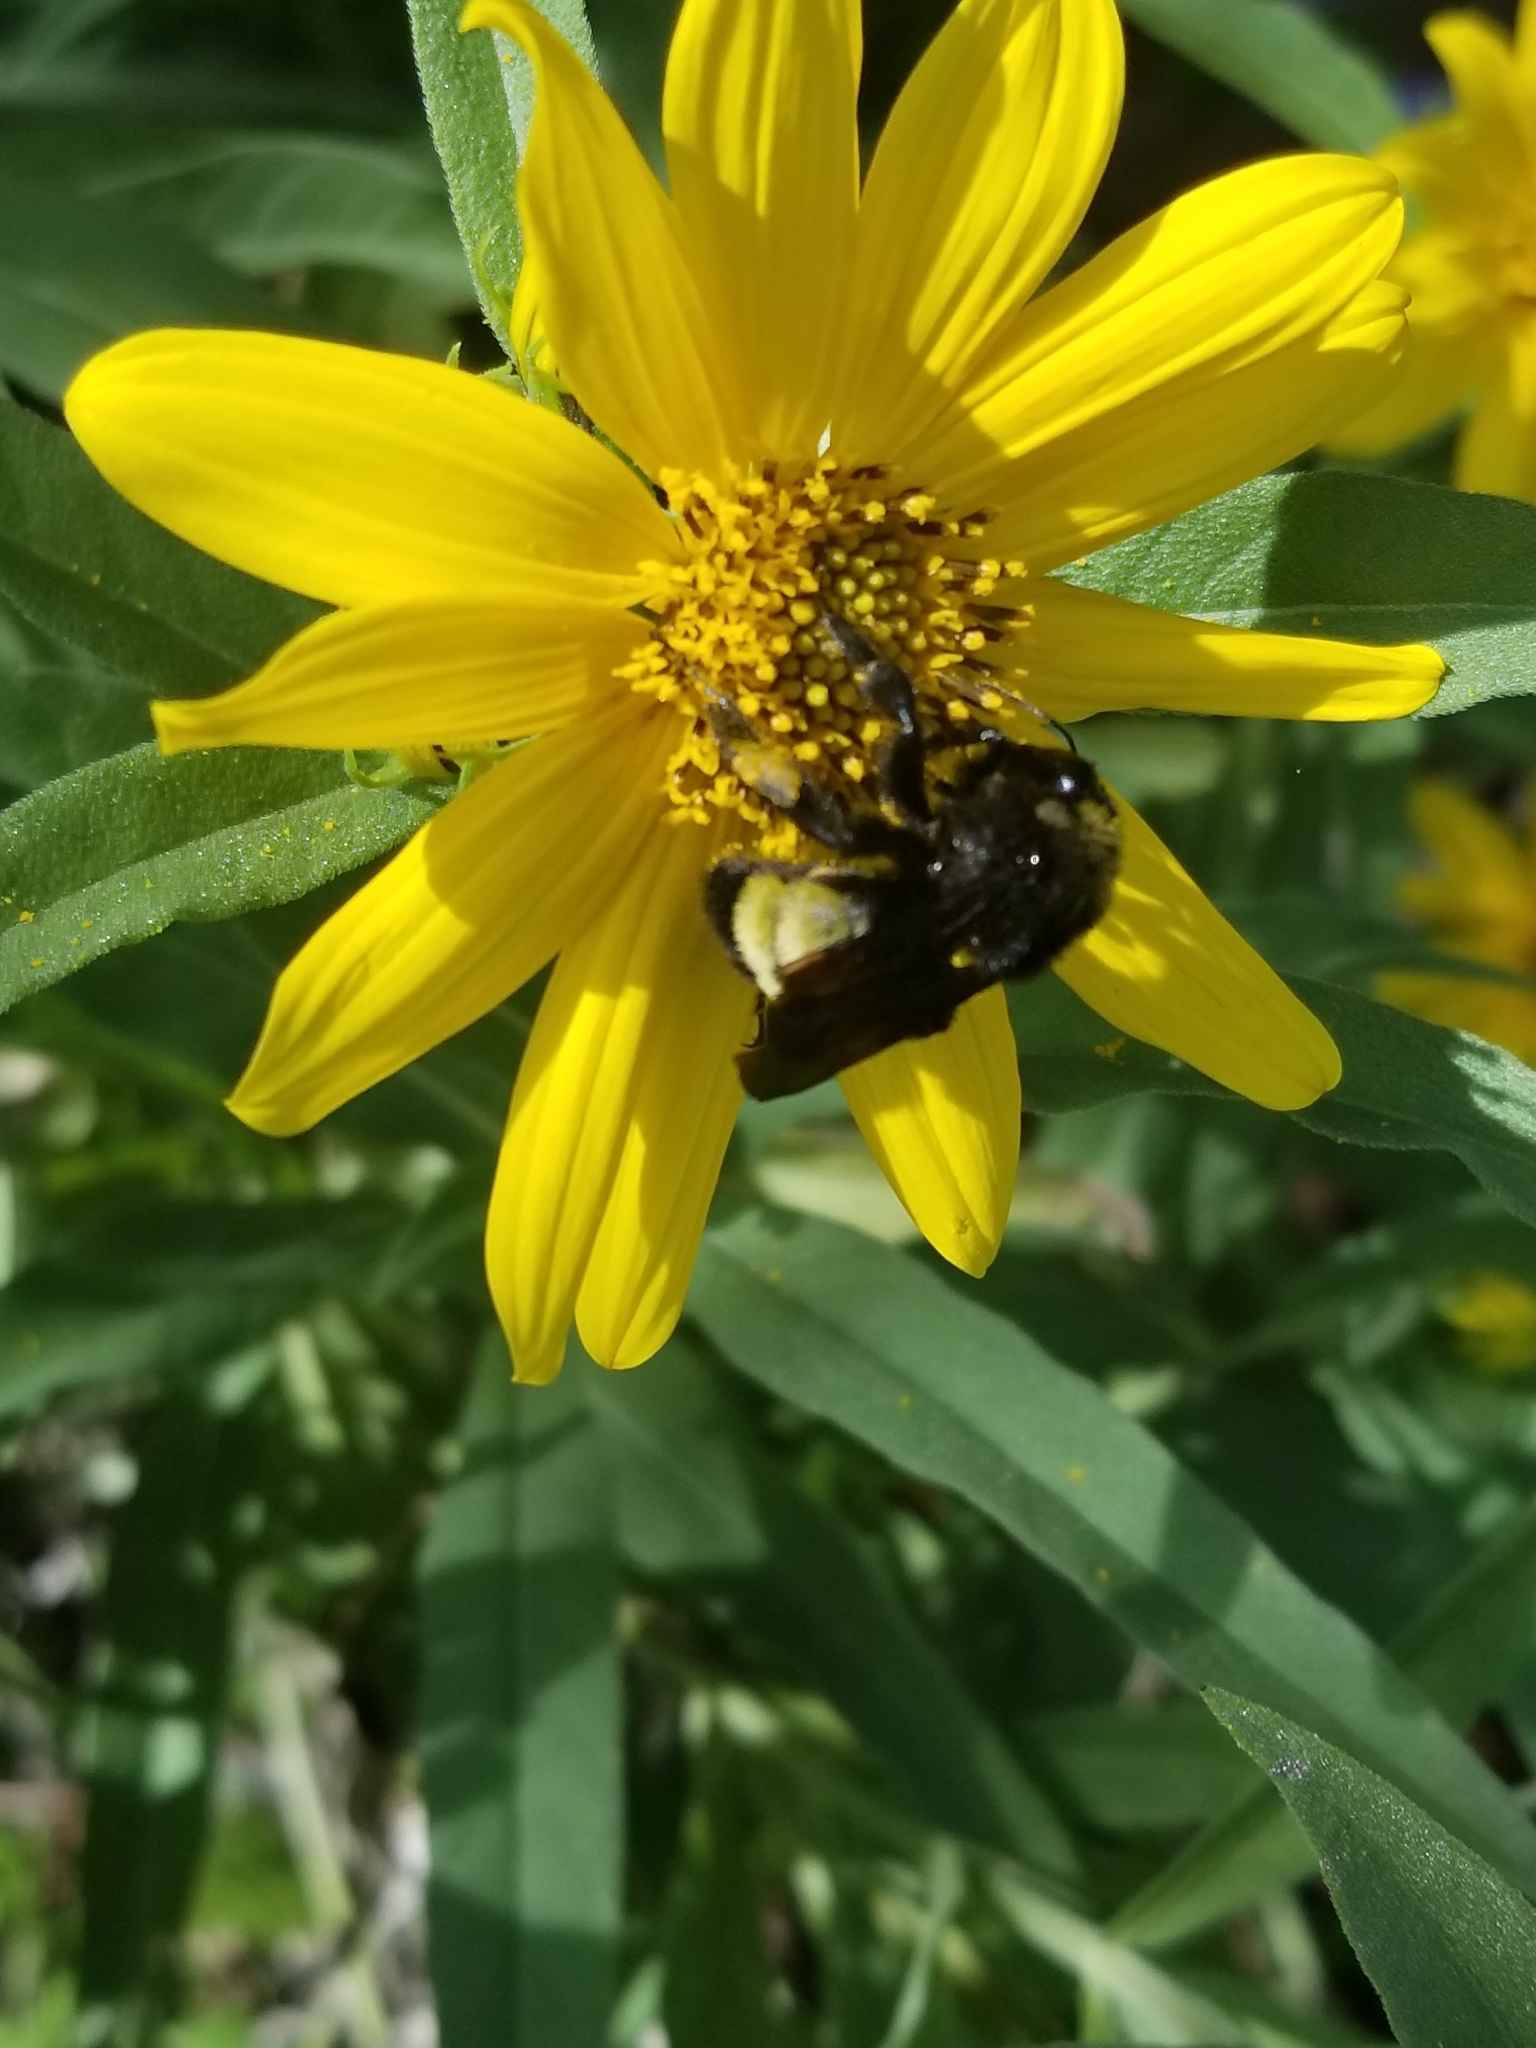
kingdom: Animalia
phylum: Arthropoda
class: Insecta
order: Hymenoptera
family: Apidae
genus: Bombus
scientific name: Bombus pensylvanicus
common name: Bumble bee
